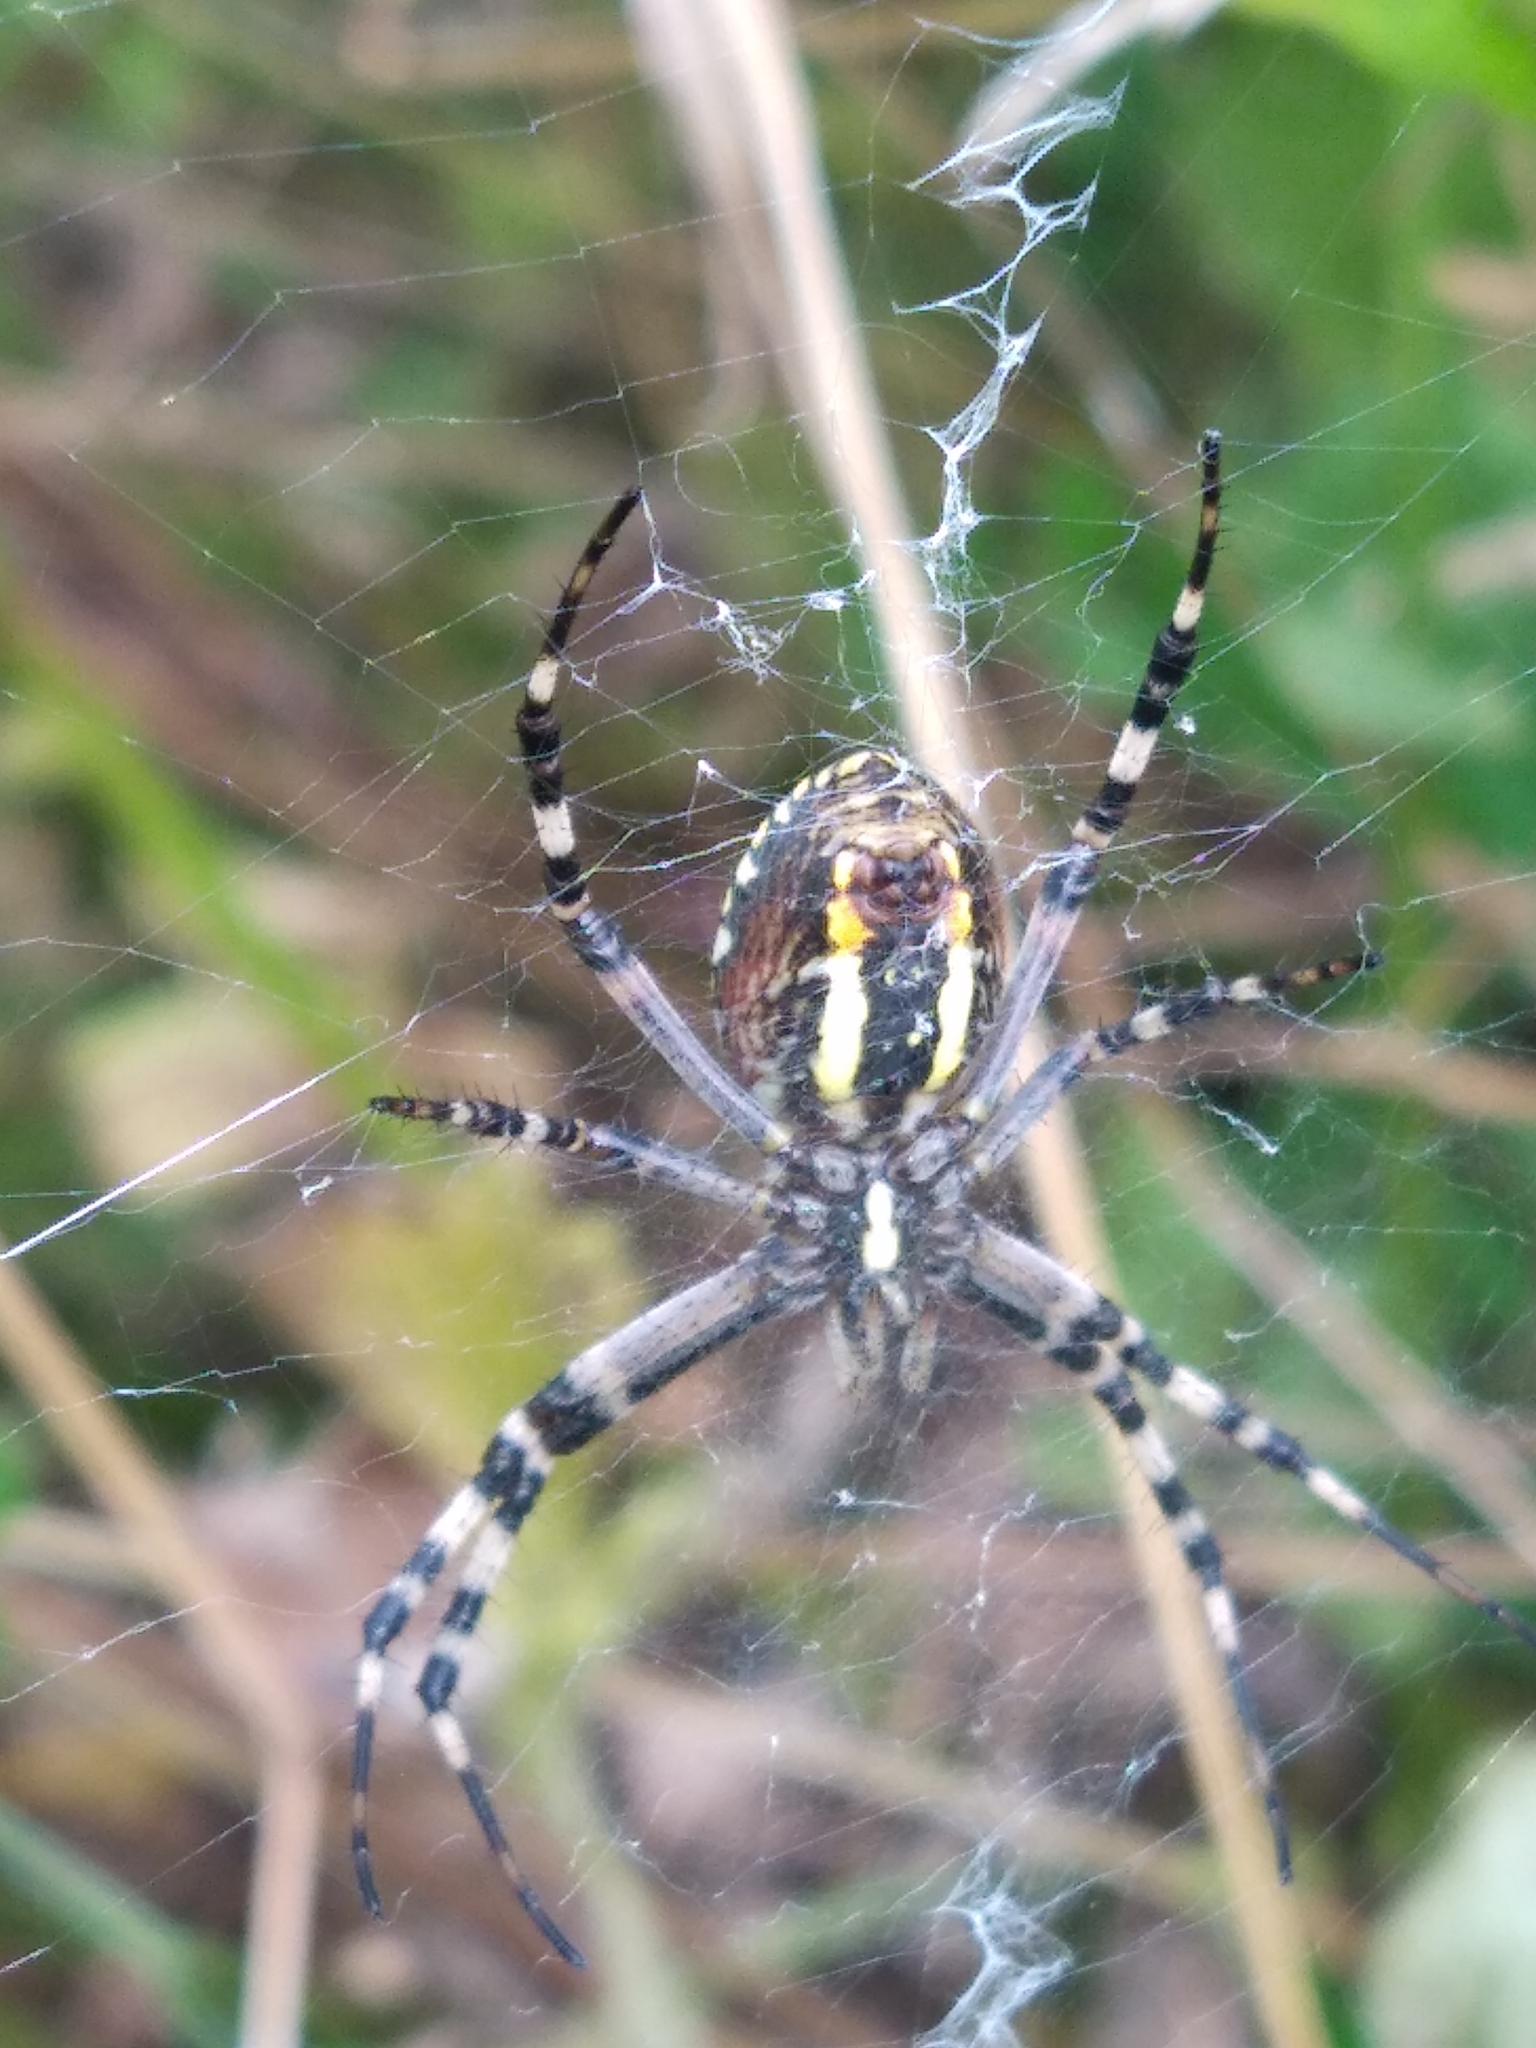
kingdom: Animalia
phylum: Arthropoda
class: Arachnida
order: Araneae
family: Araneidae
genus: Argiope
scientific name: Argiope bruennichi
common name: Wasp spider
